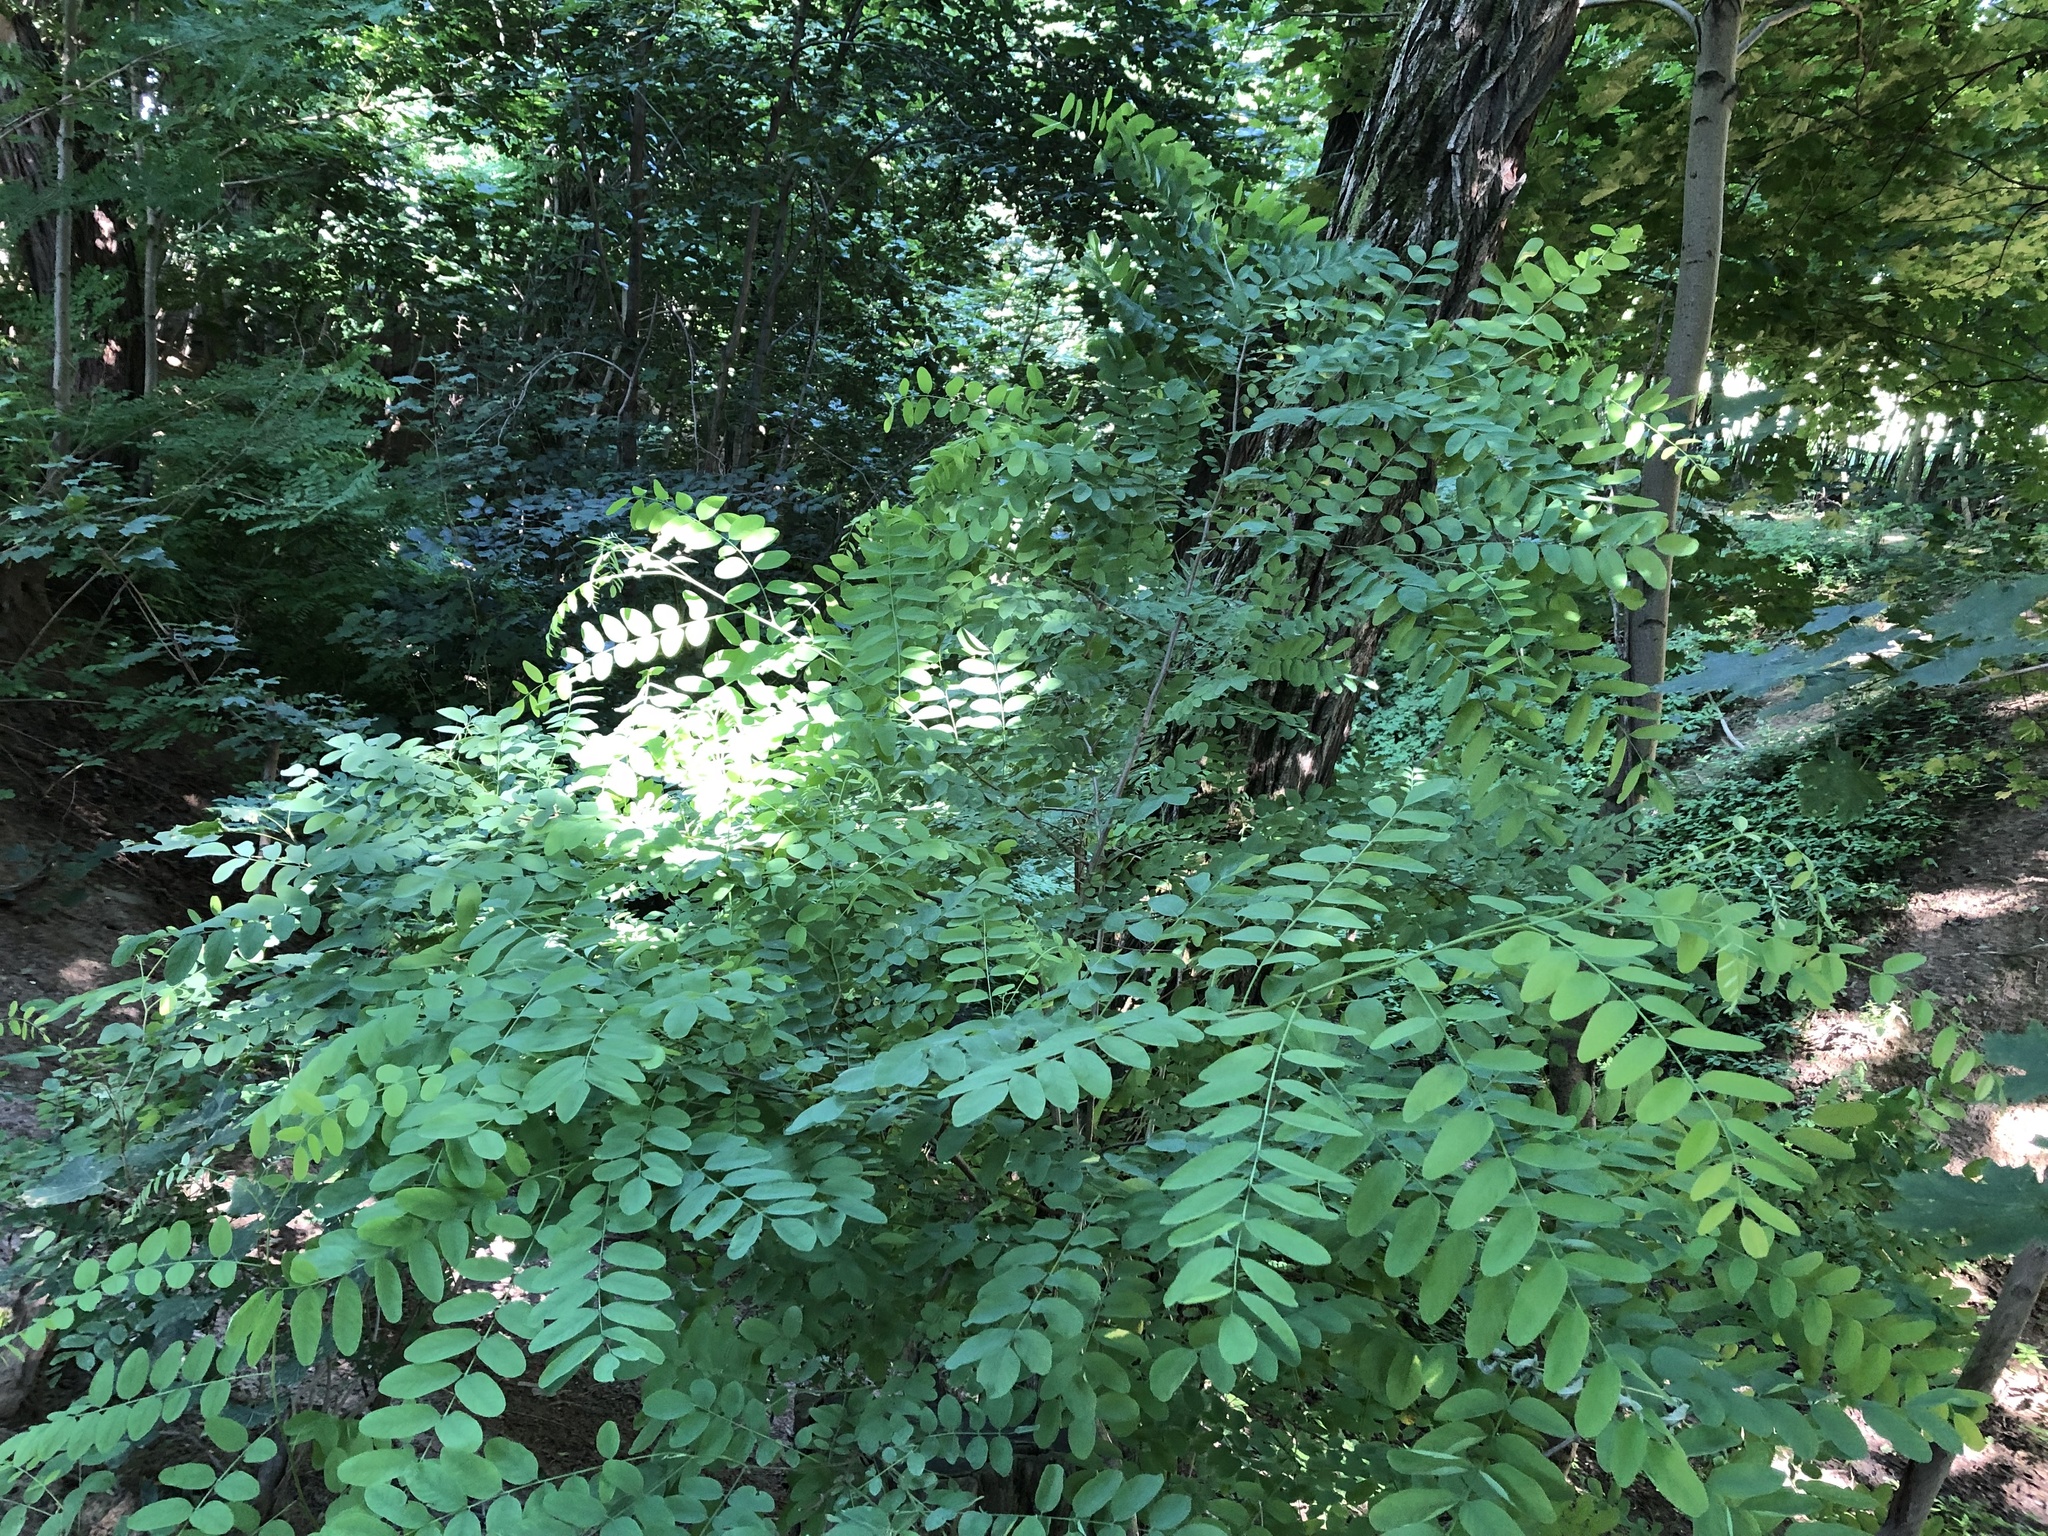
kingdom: Plantae
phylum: Tracheophyta
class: Magnoliopsida
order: Fabales
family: Fabaceae
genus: Robinia
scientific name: Robinia pseudoacacia
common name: Black locust
